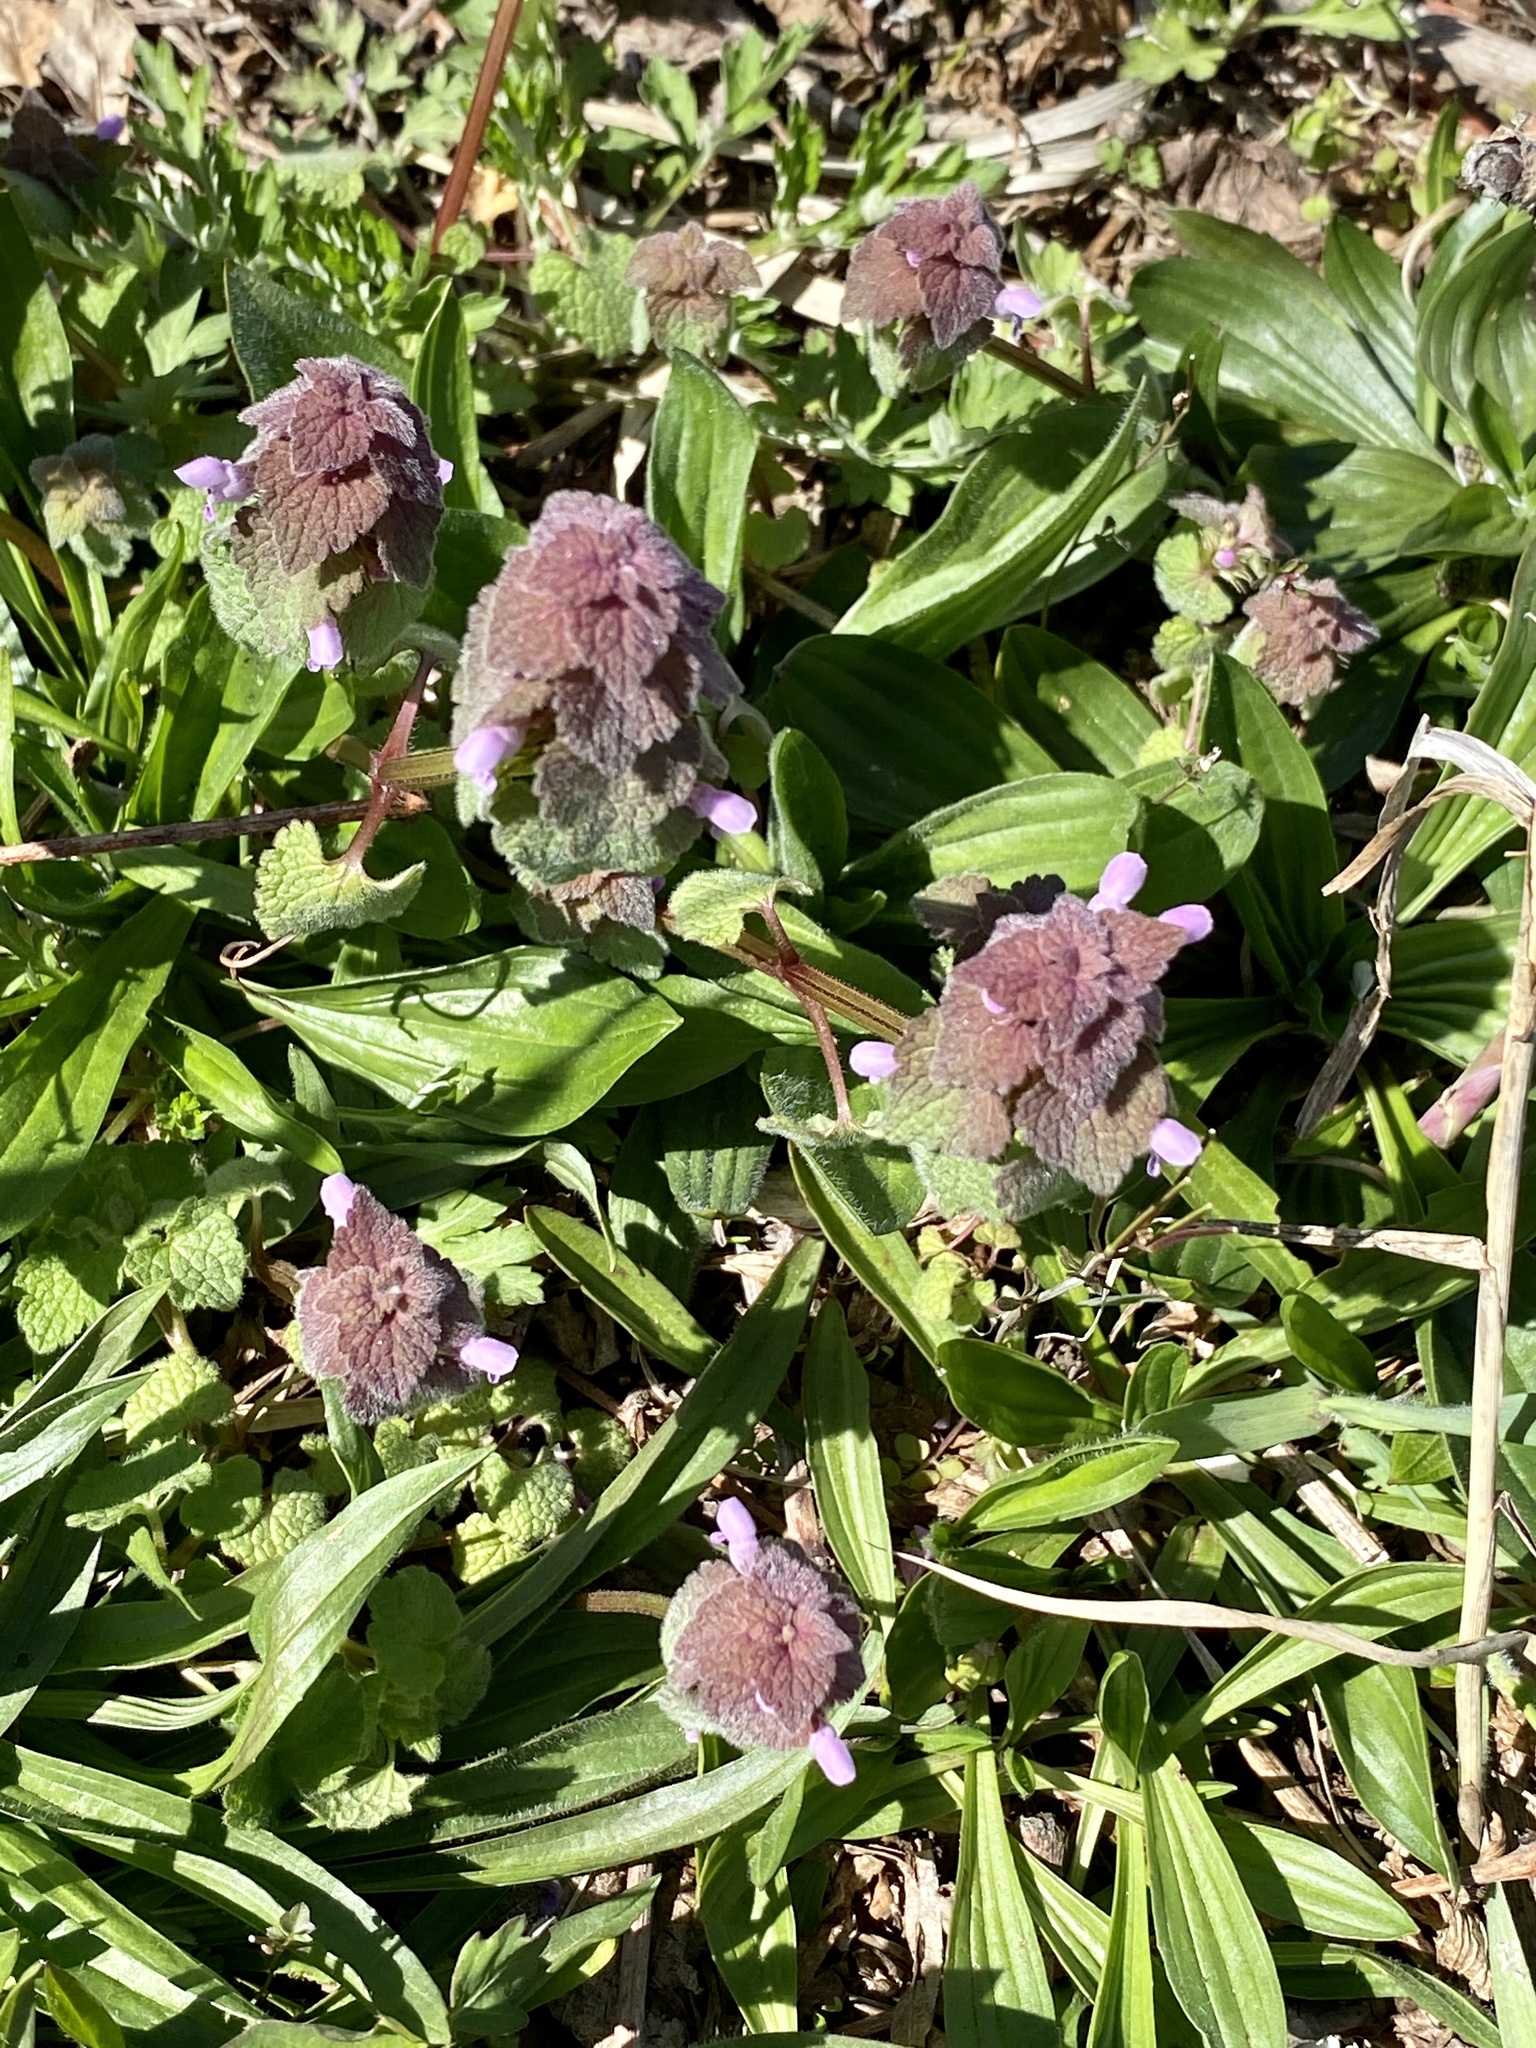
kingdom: Plantae
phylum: Tracheophyta
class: Magnoliopsida
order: Lamiales
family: Lamiaceae
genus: Lamium
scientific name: Lamium purpureum
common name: Red dead-nettle
